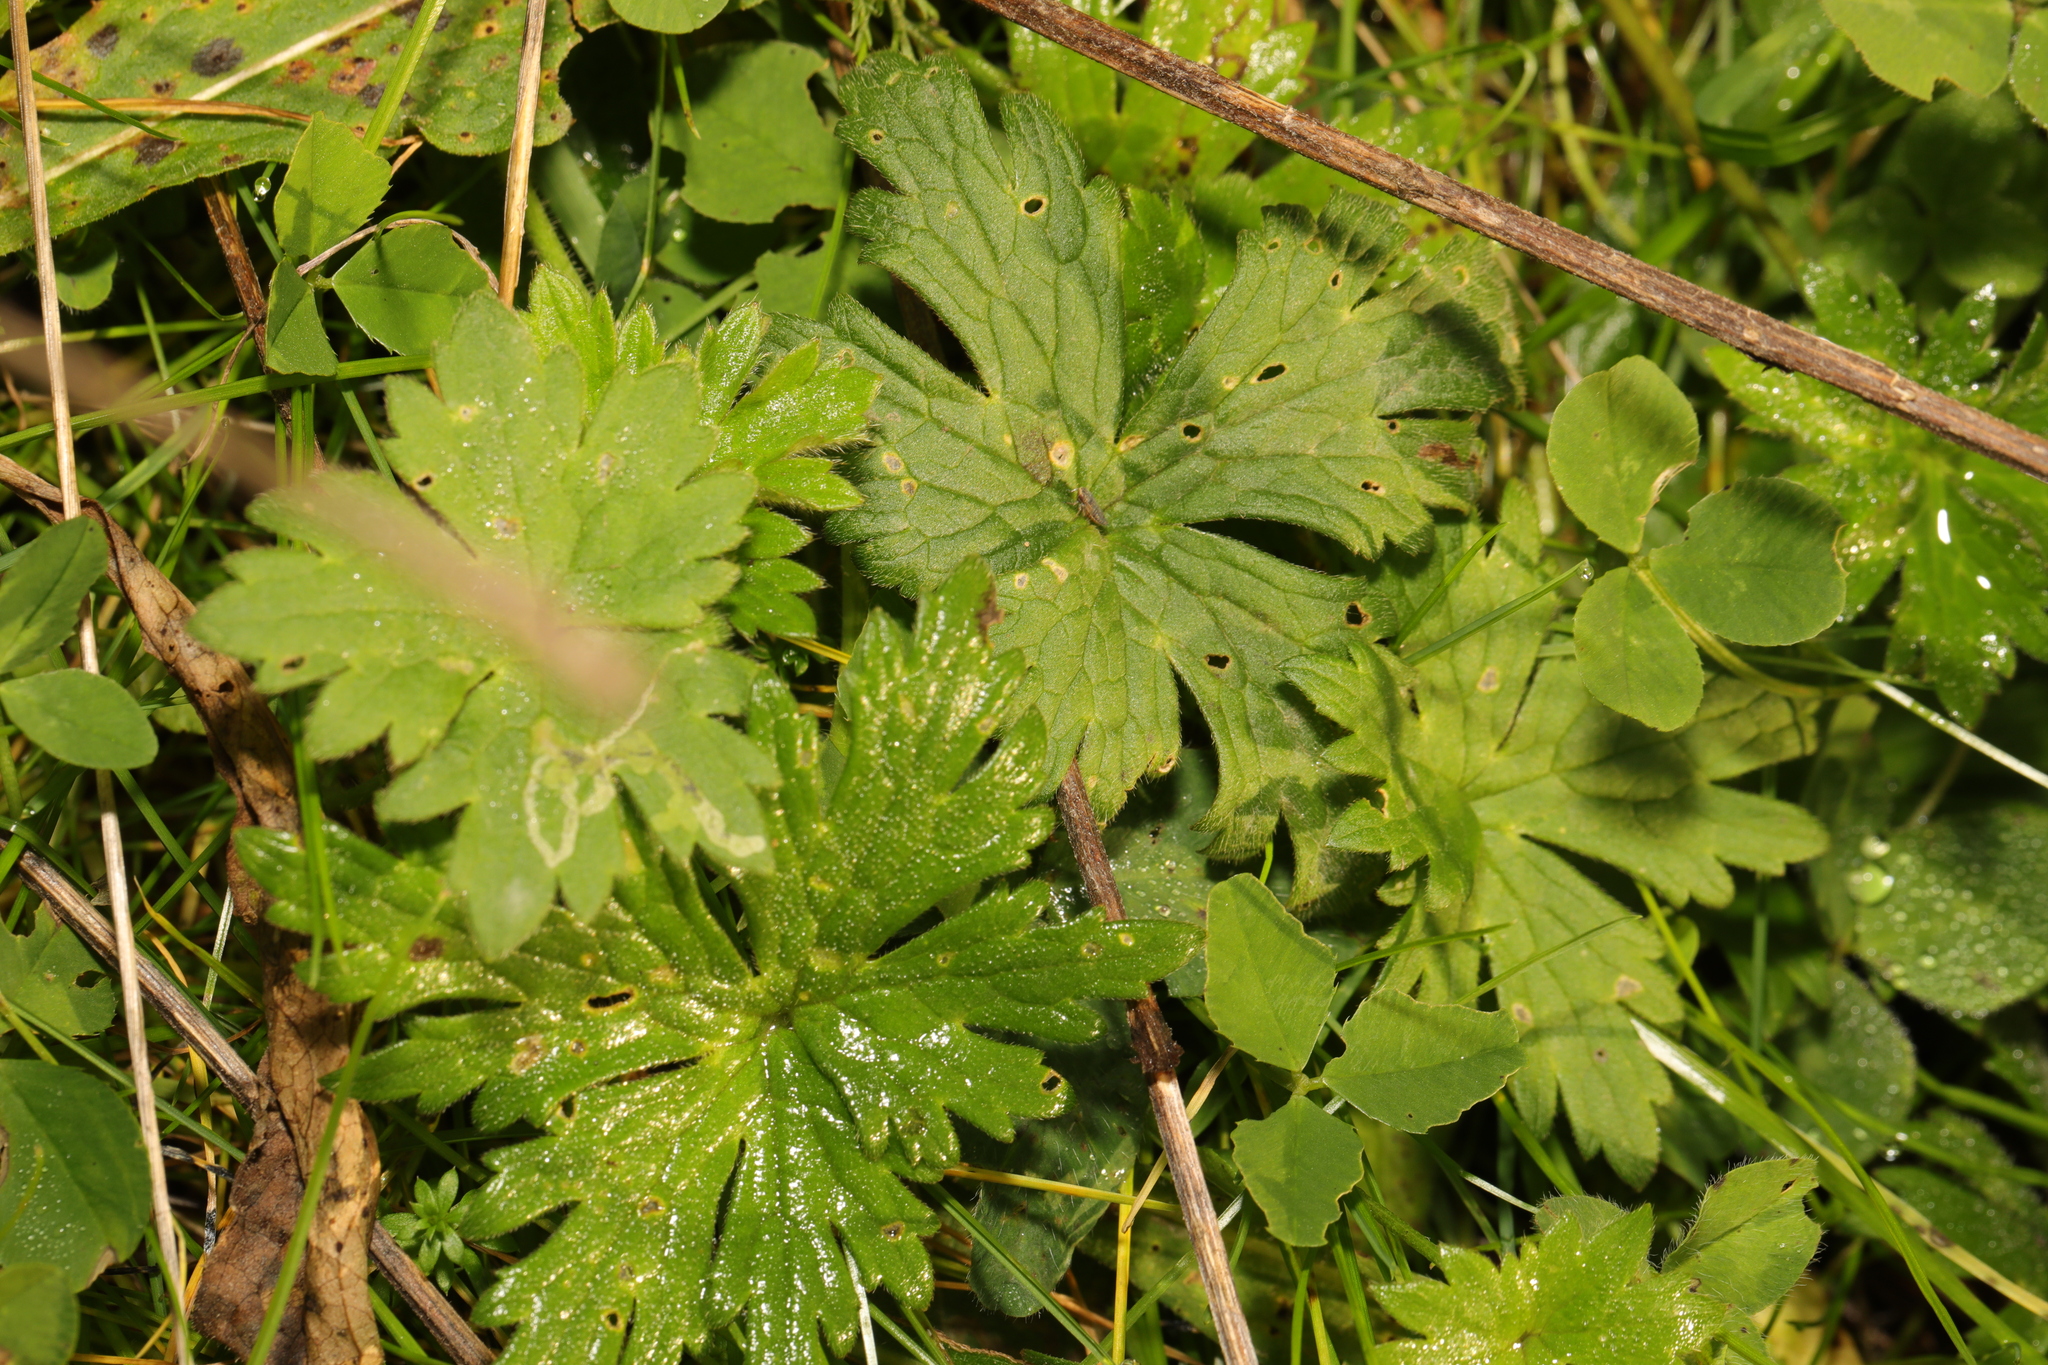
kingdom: Plantae
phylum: Tracheophyta
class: Magnoliopsida
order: Ranunculales
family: Ranunculaceae
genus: Ranunculus
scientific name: Ranunculus acris
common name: Meadow buttercup
